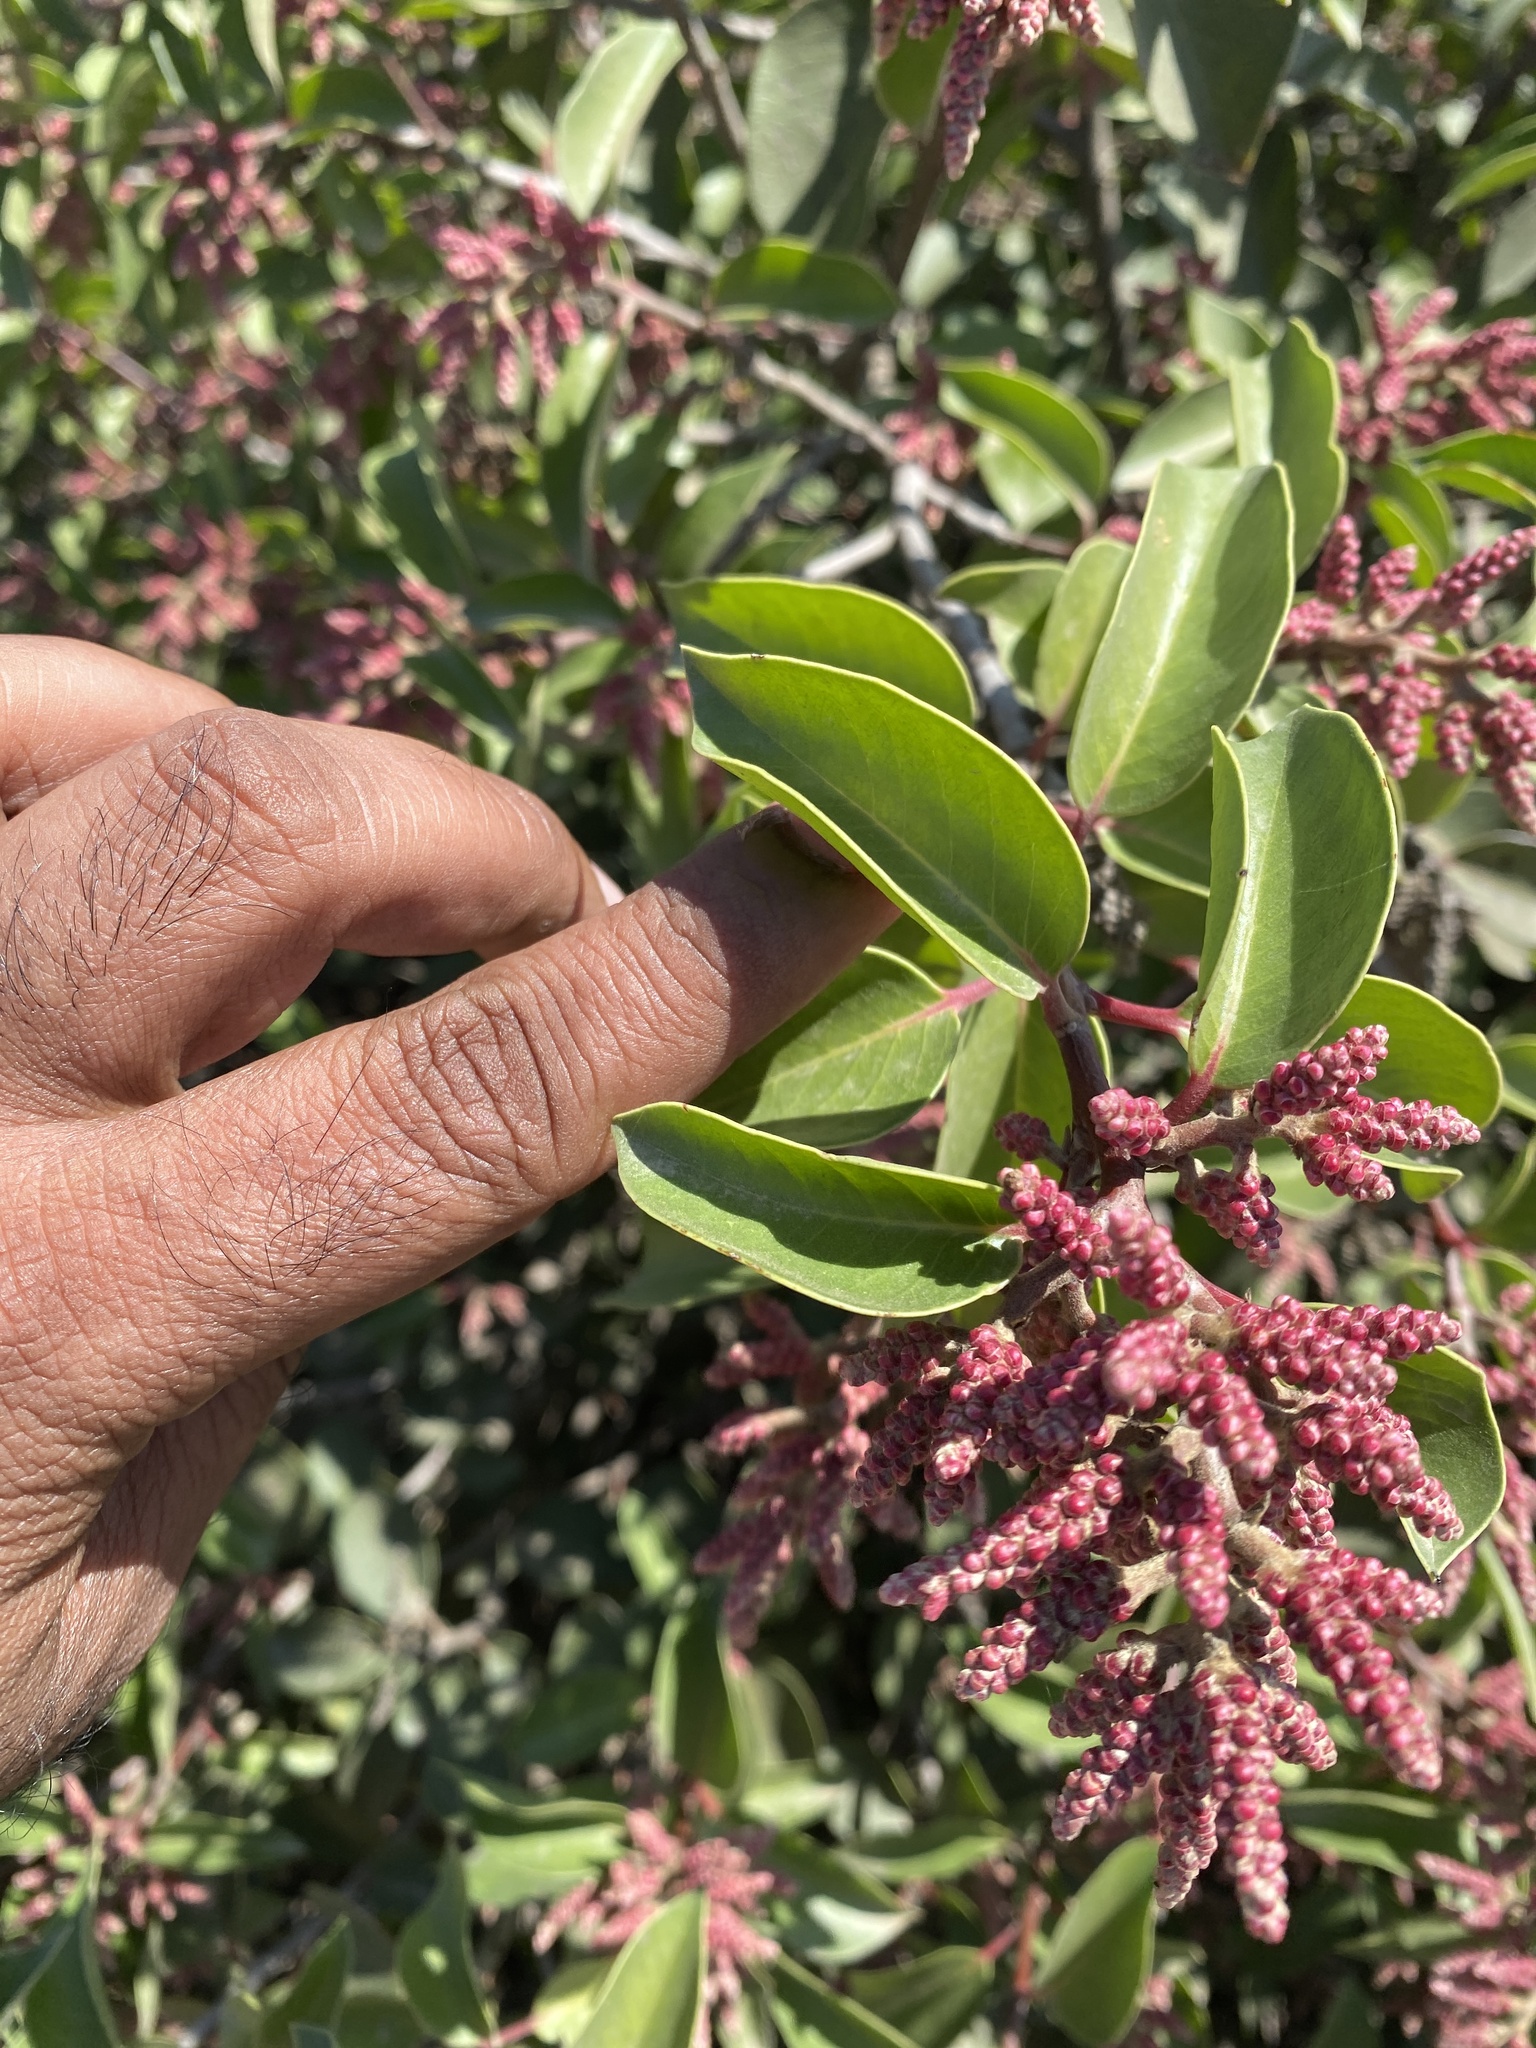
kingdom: Plantae
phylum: Tracheophyta
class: Magnoliopsida
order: Sapindales
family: Anacardiaceae
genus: Rhus
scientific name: Rhus ovata
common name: Sugar sumac
